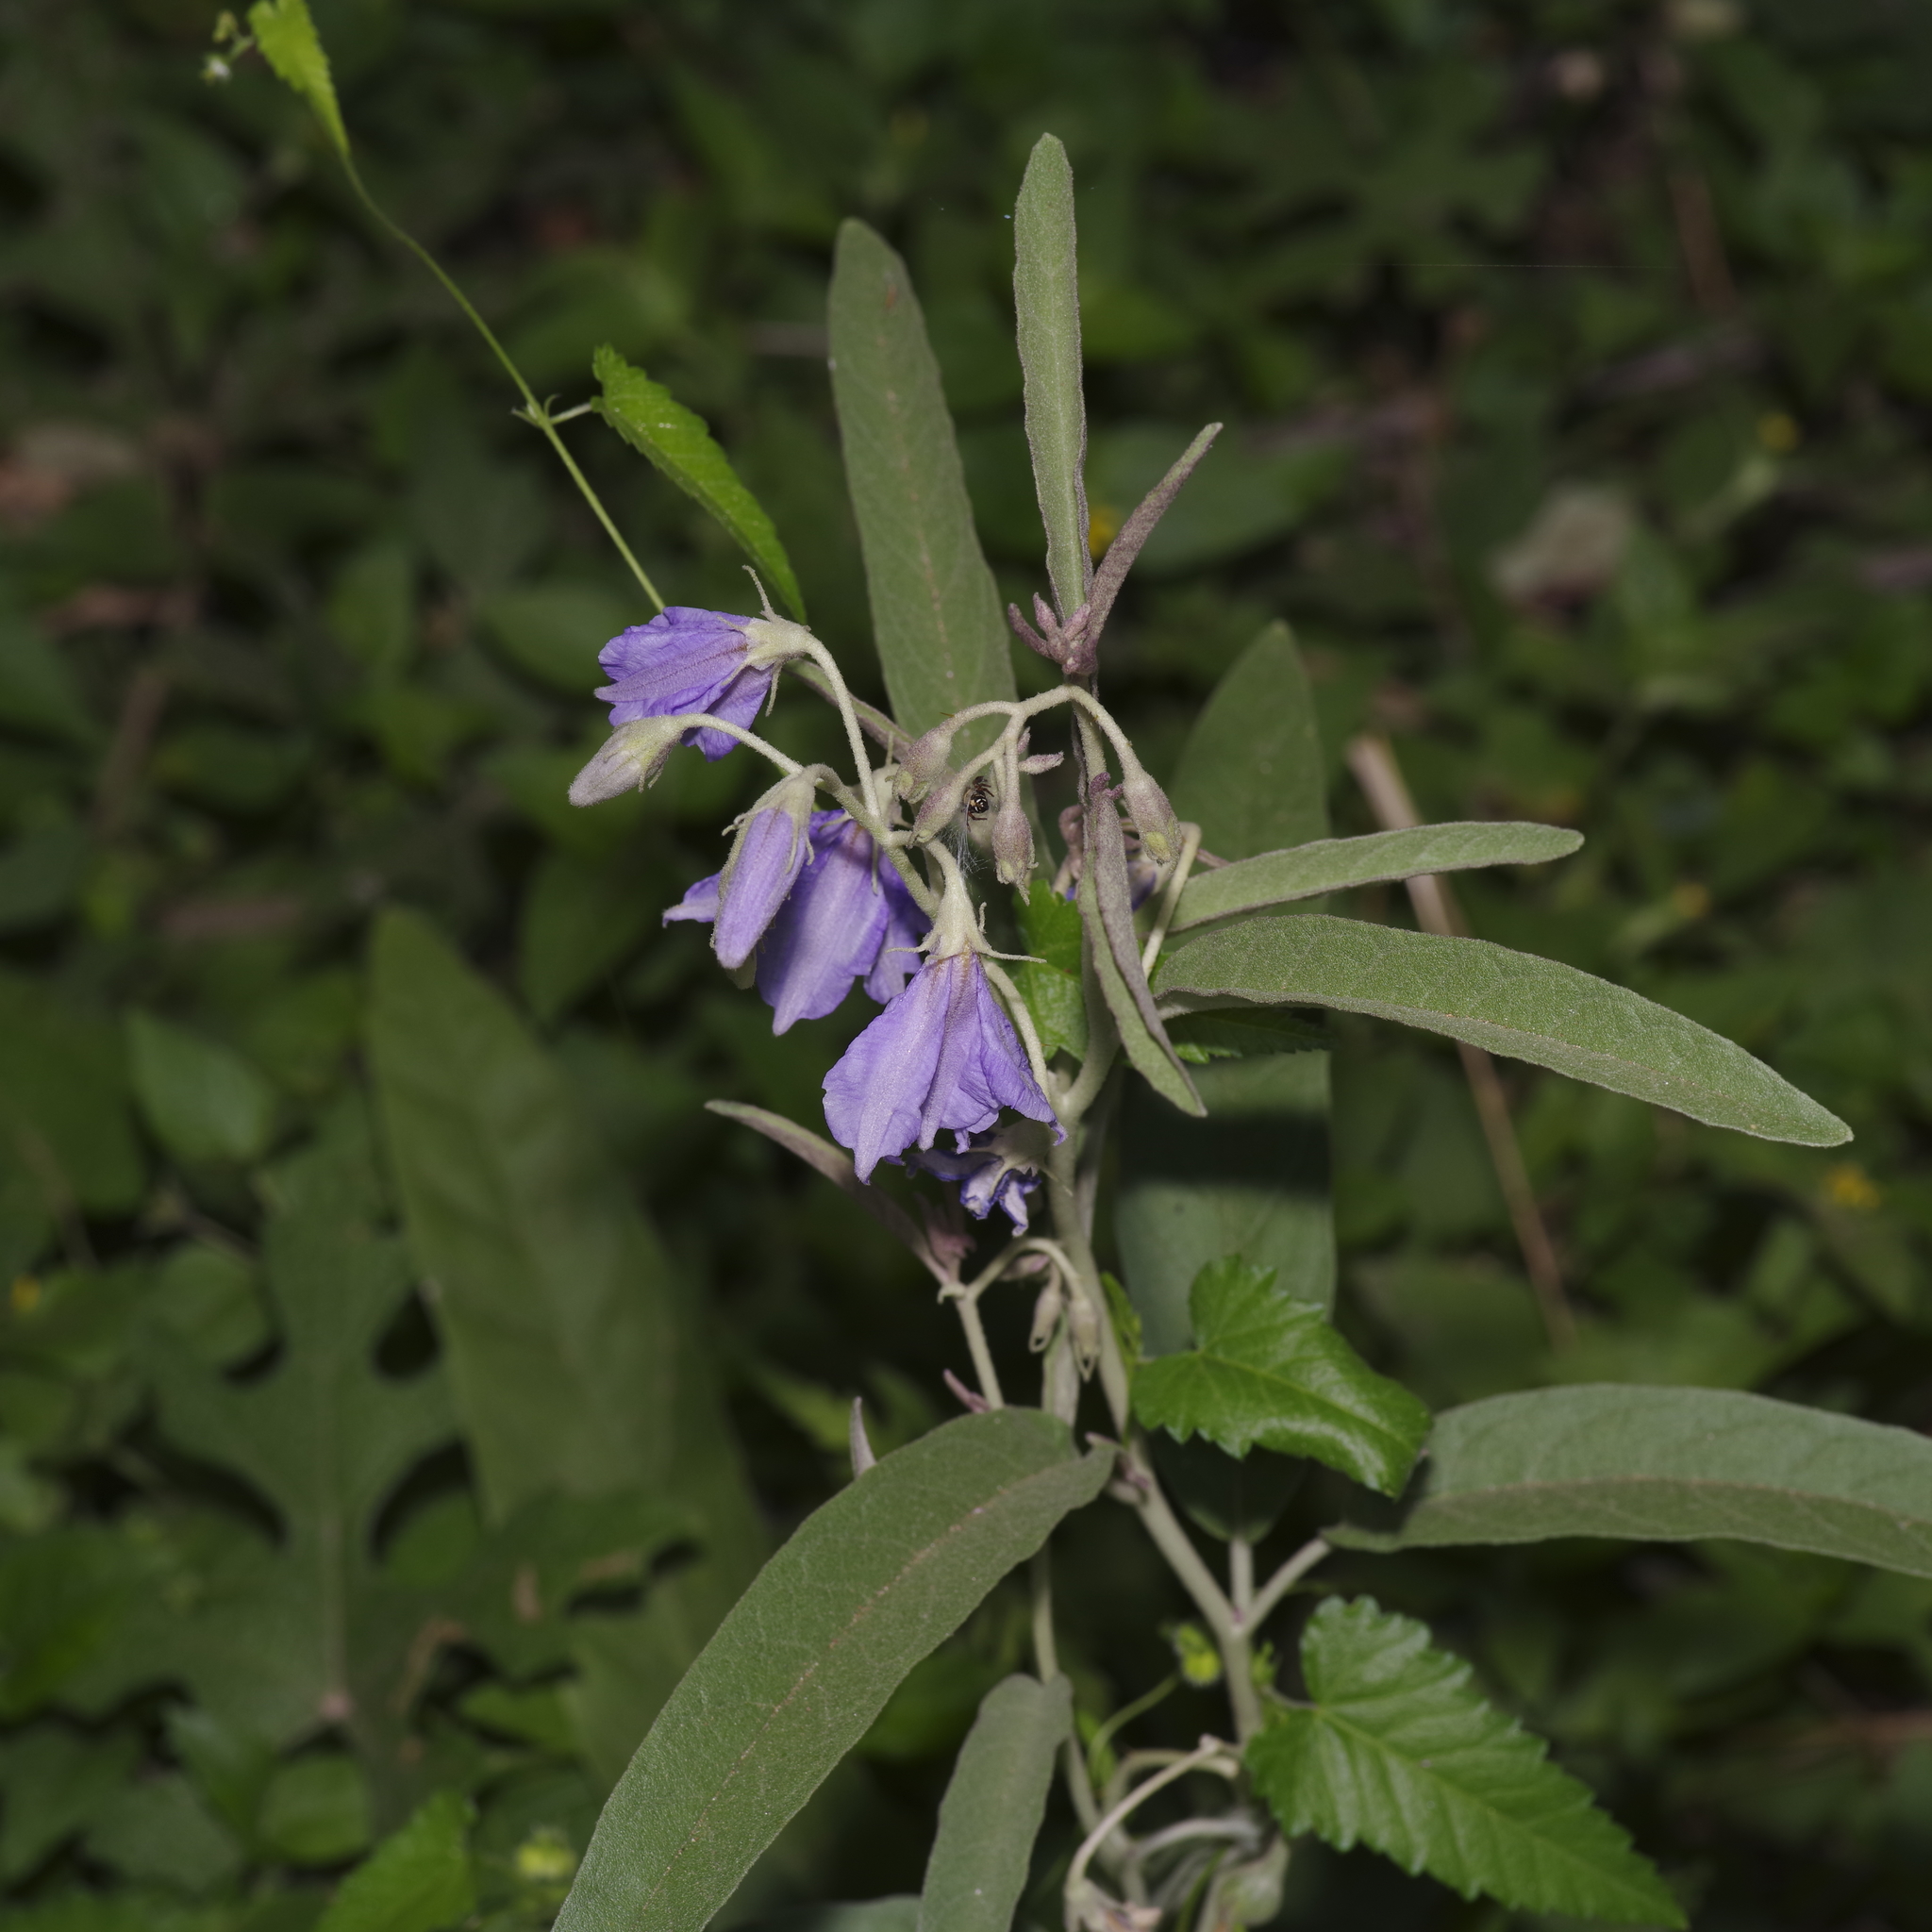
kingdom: Plantae
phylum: Tracheophyta
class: Magnoliopsida
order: Solanales
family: Solanaceae
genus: Solanum
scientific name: Solanum elaeagnifolium
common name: Silverleaf nightshade
